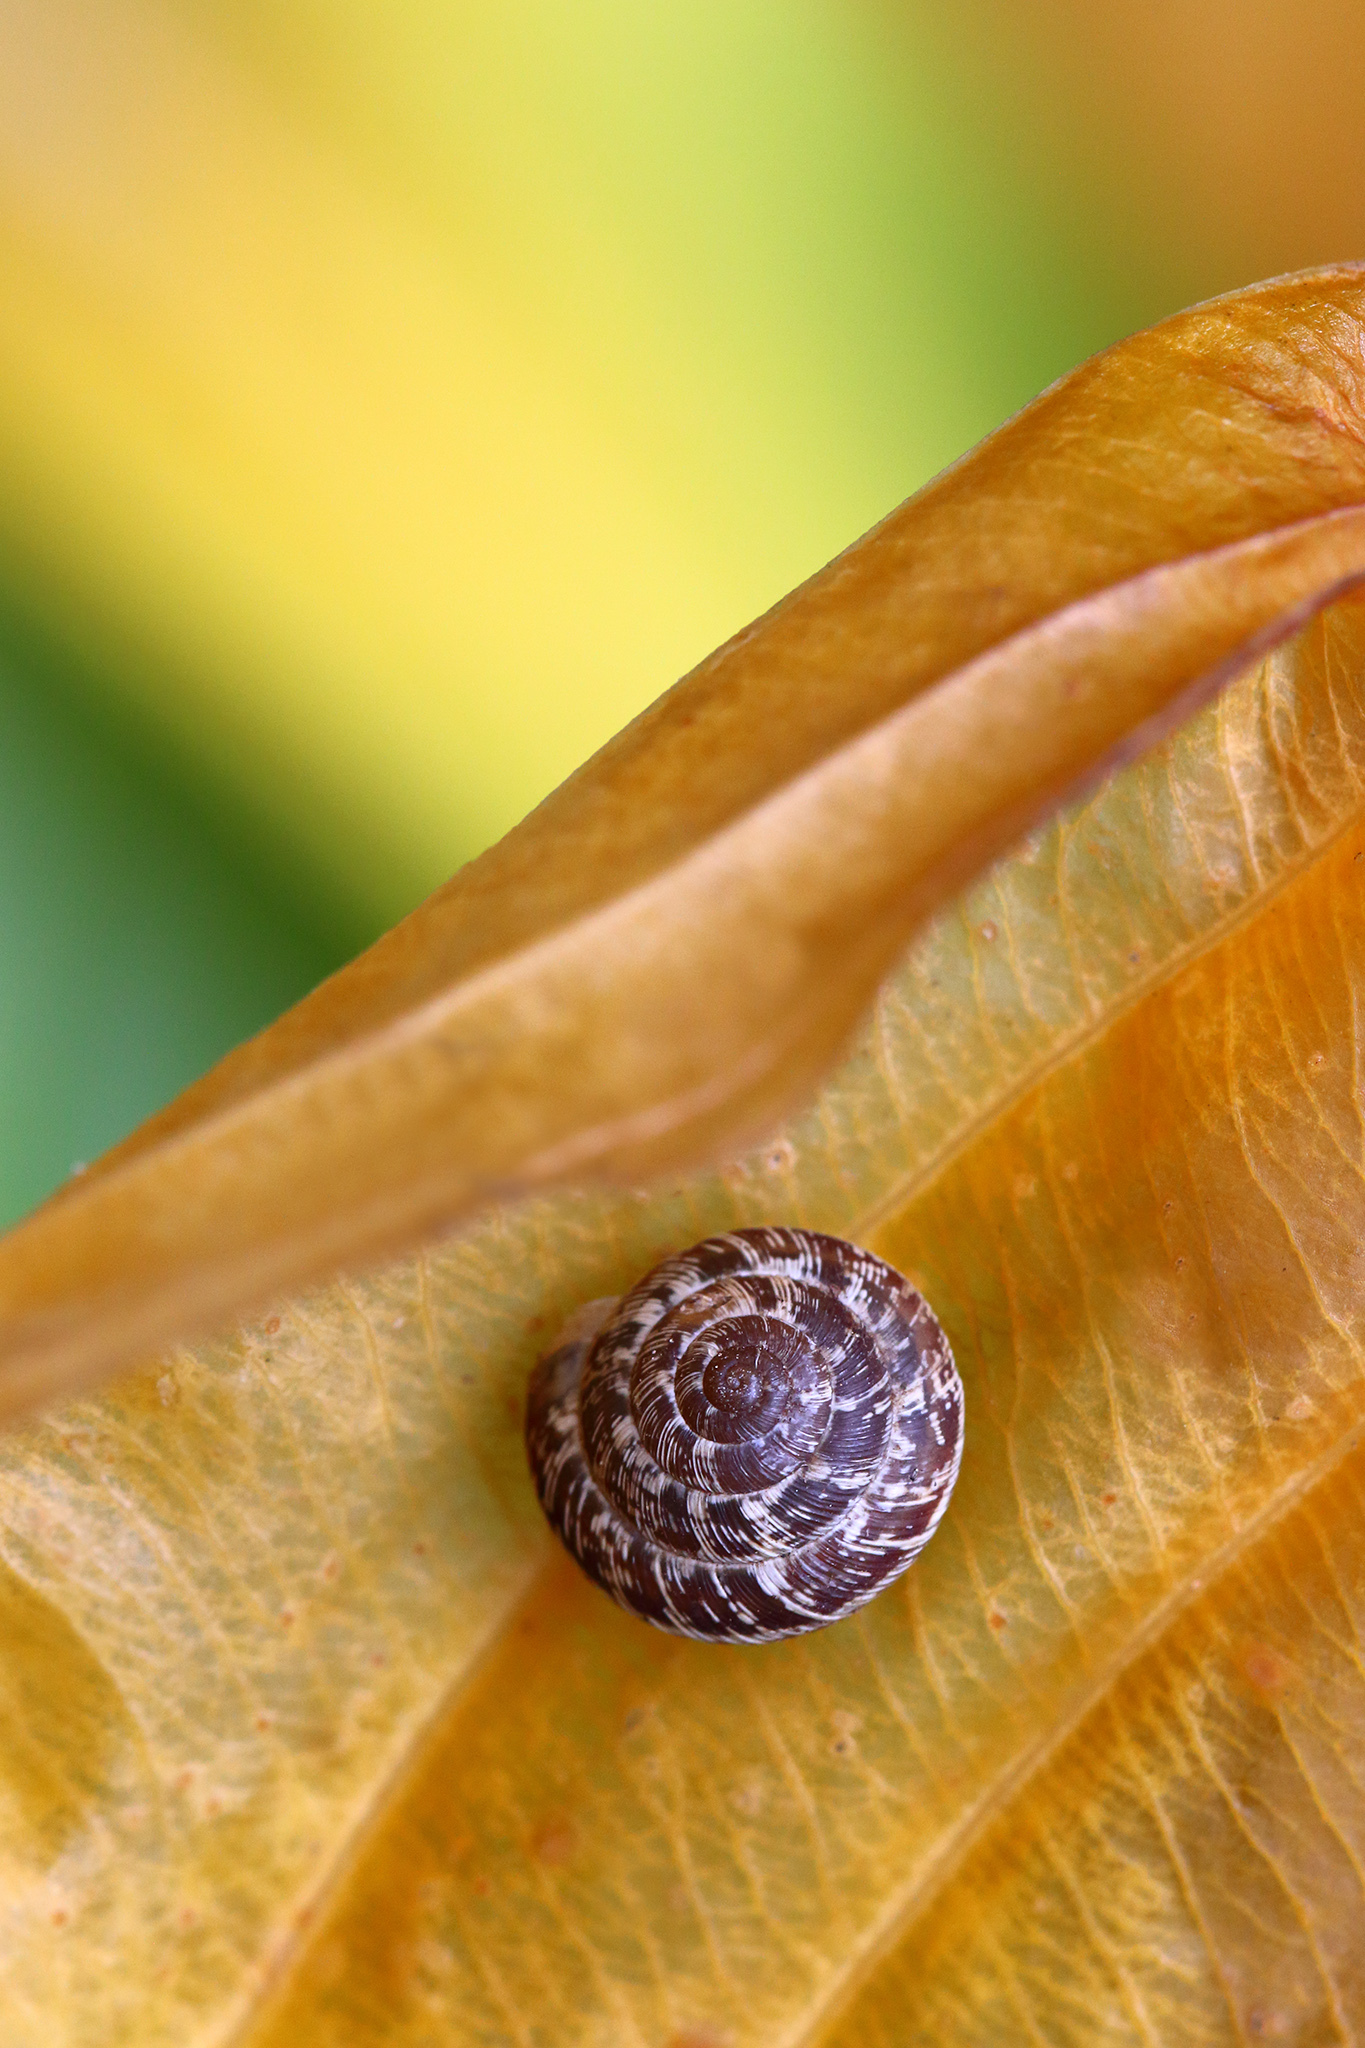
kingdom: Animalia
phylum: Mollusca
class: Gastropoda
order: Stylommatophora
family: Geomitridae
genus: Xeroplexa
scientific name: Xeroplexa intersecta
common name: Wrinkled snail
